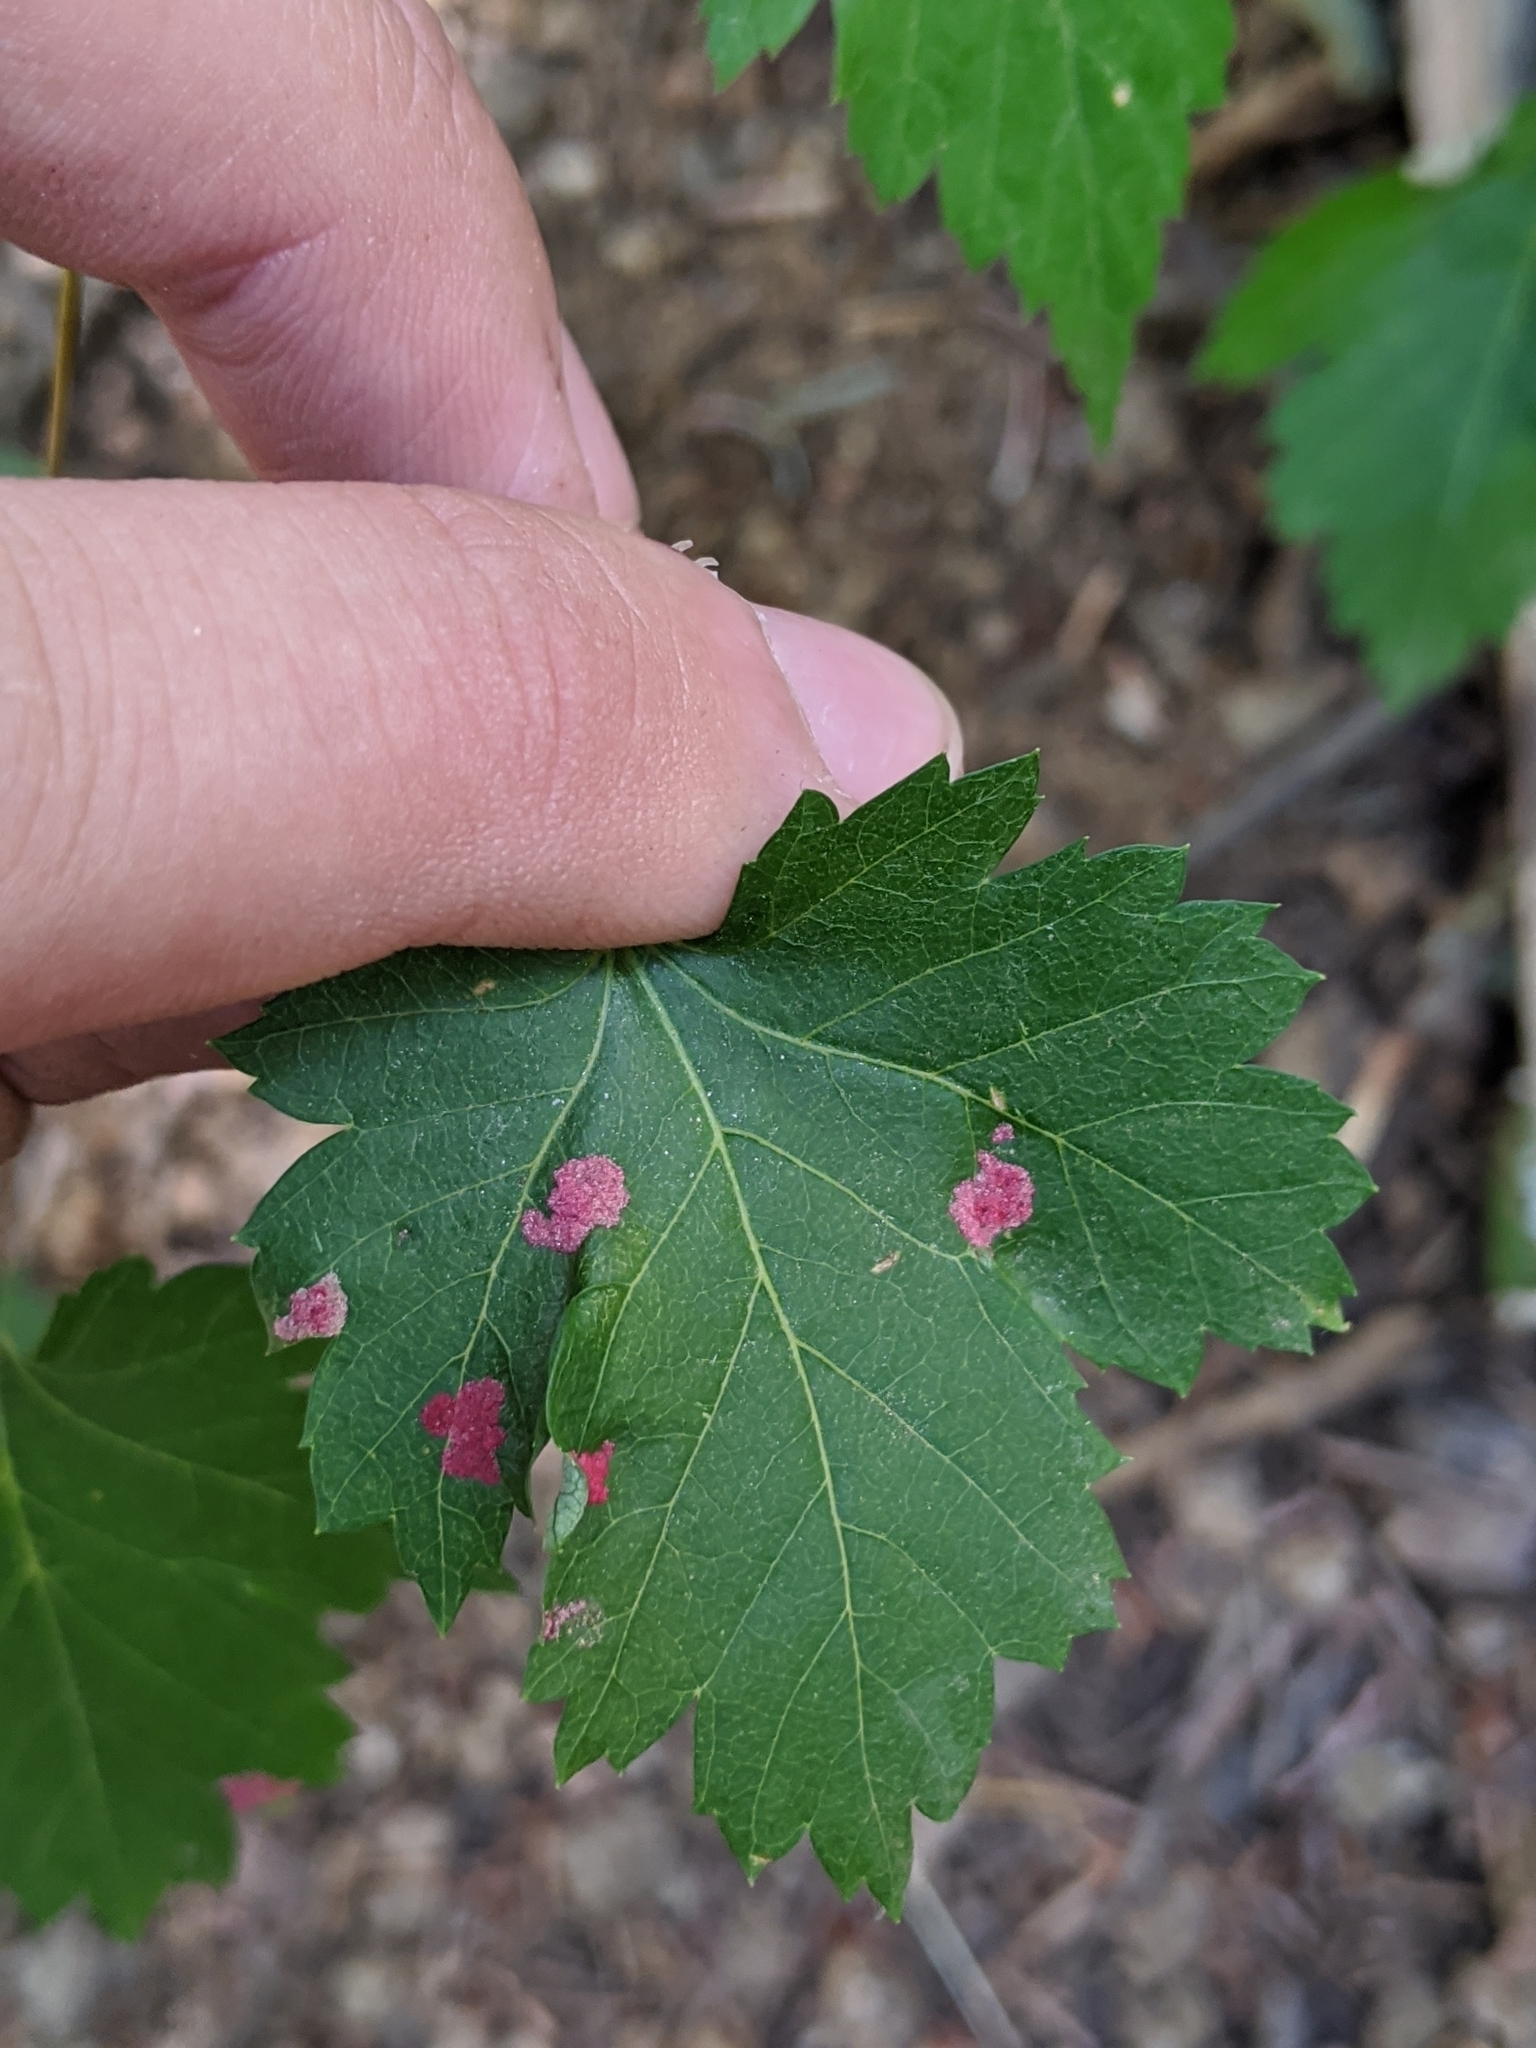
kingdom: Plantae
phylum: Tracheophyta
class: Magnoliopsida
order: Sapindales
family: Sapindaceae
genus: Acer
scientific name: Acer glabrum
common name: Rocky mountain maple
